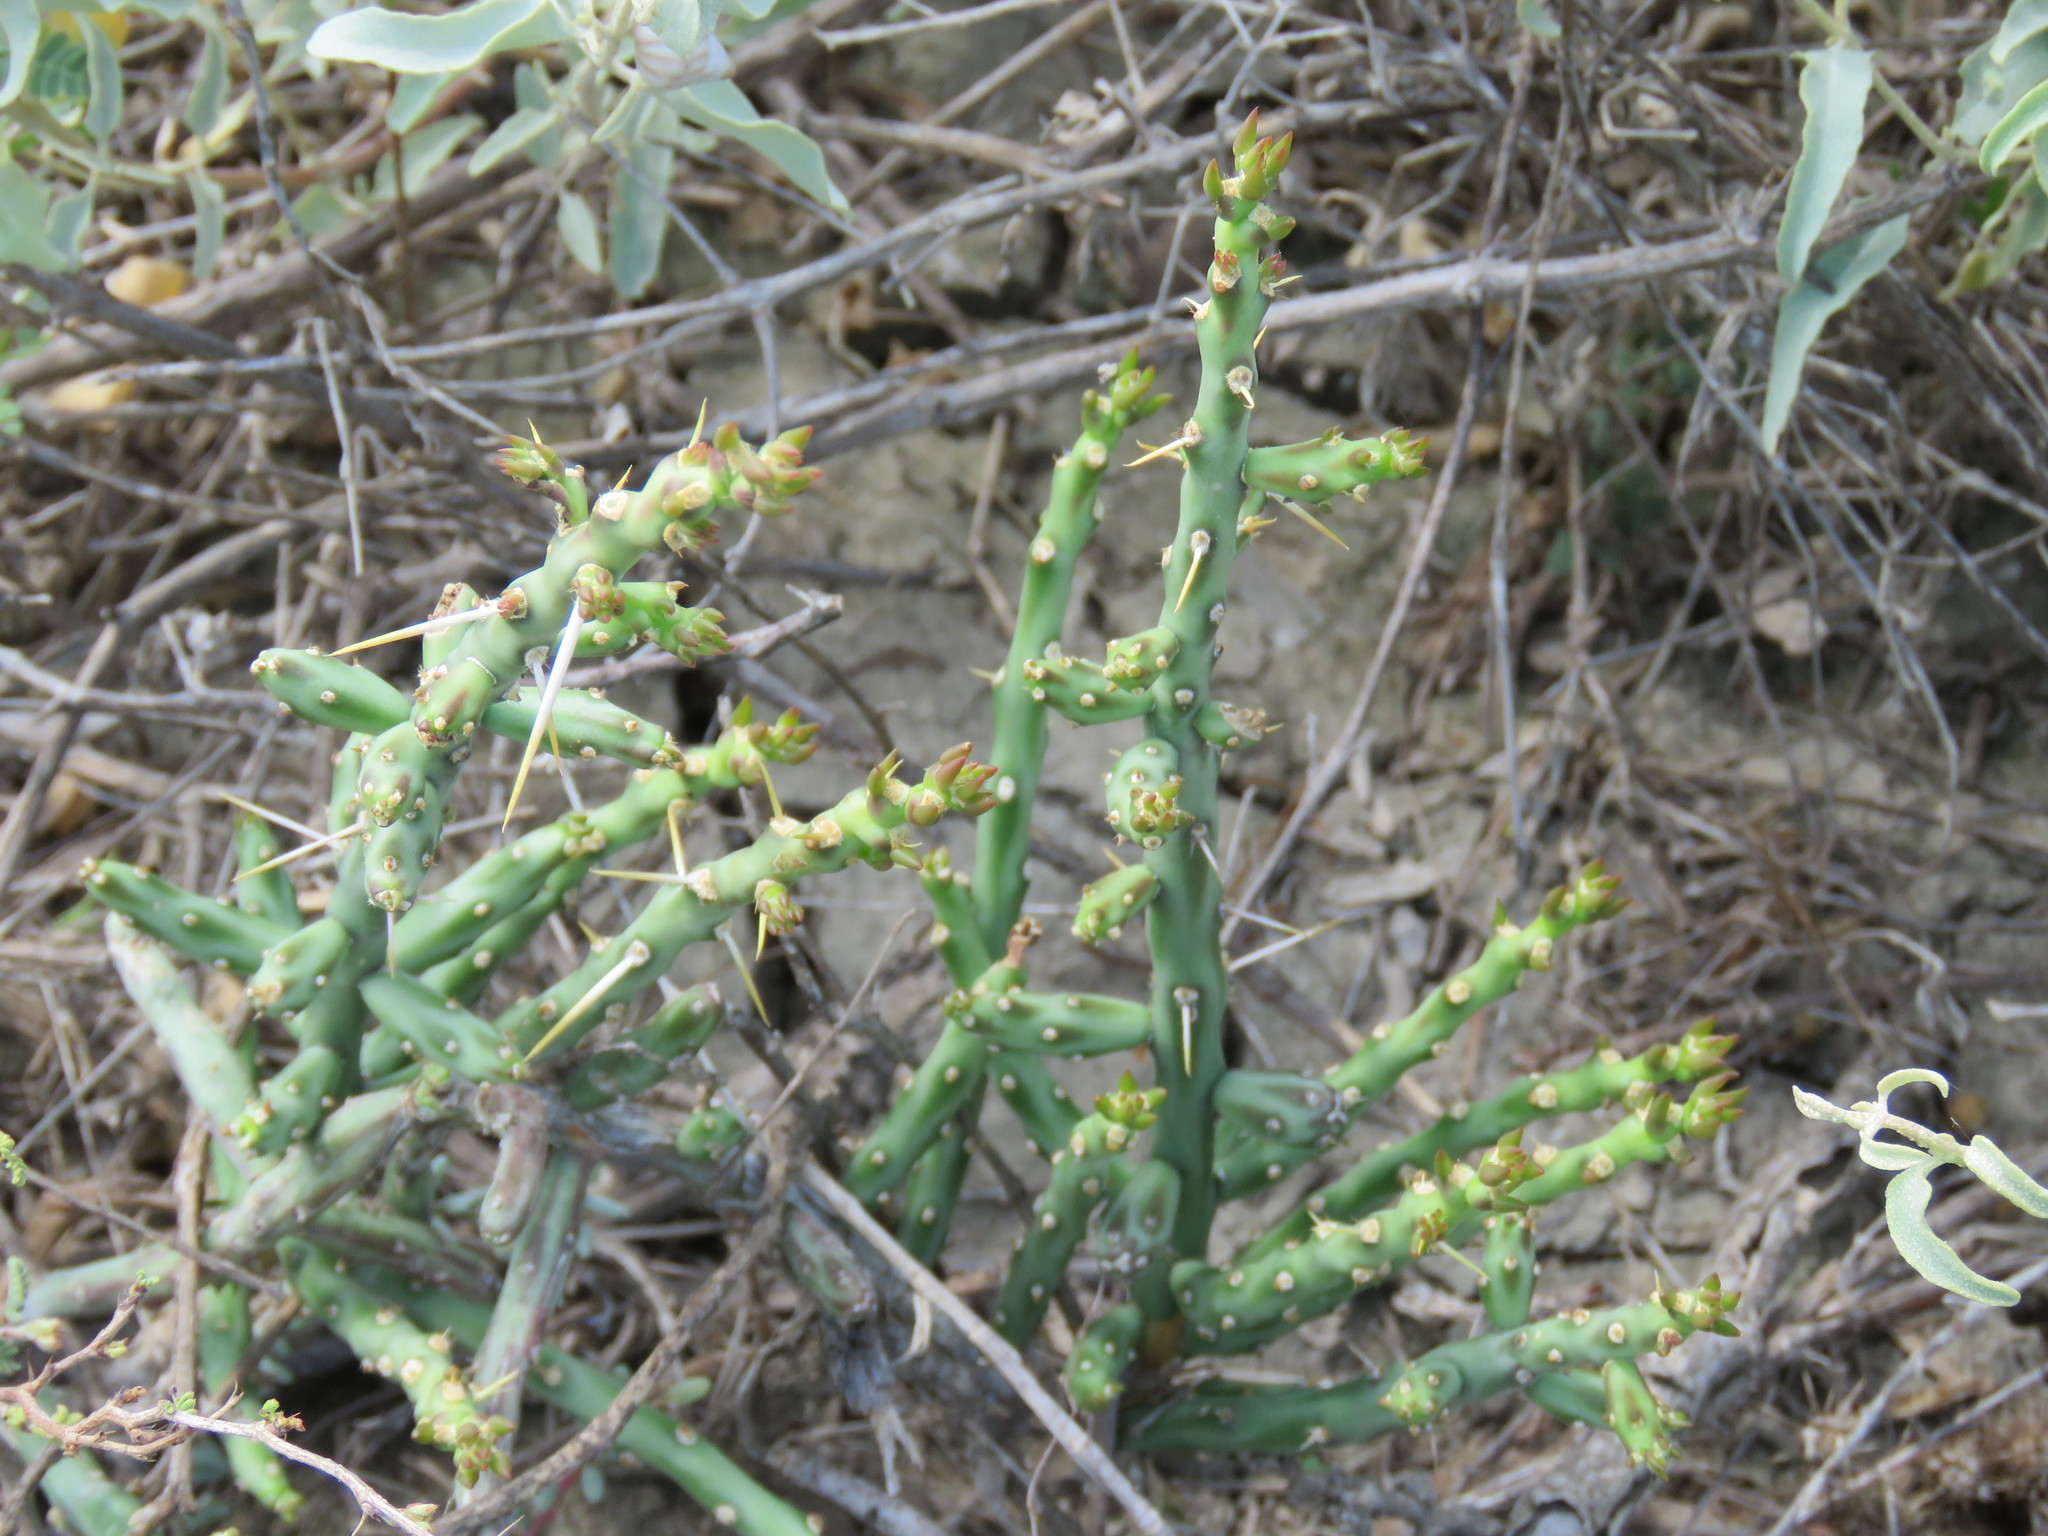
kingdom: Plantae
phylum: Tracheophyta
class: Magnoliopsida
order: Caryophyllales
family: Cactaceae
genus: Cylindropuntia
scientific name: Cylindropuntia leptocaulis
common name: Christmas cactus
